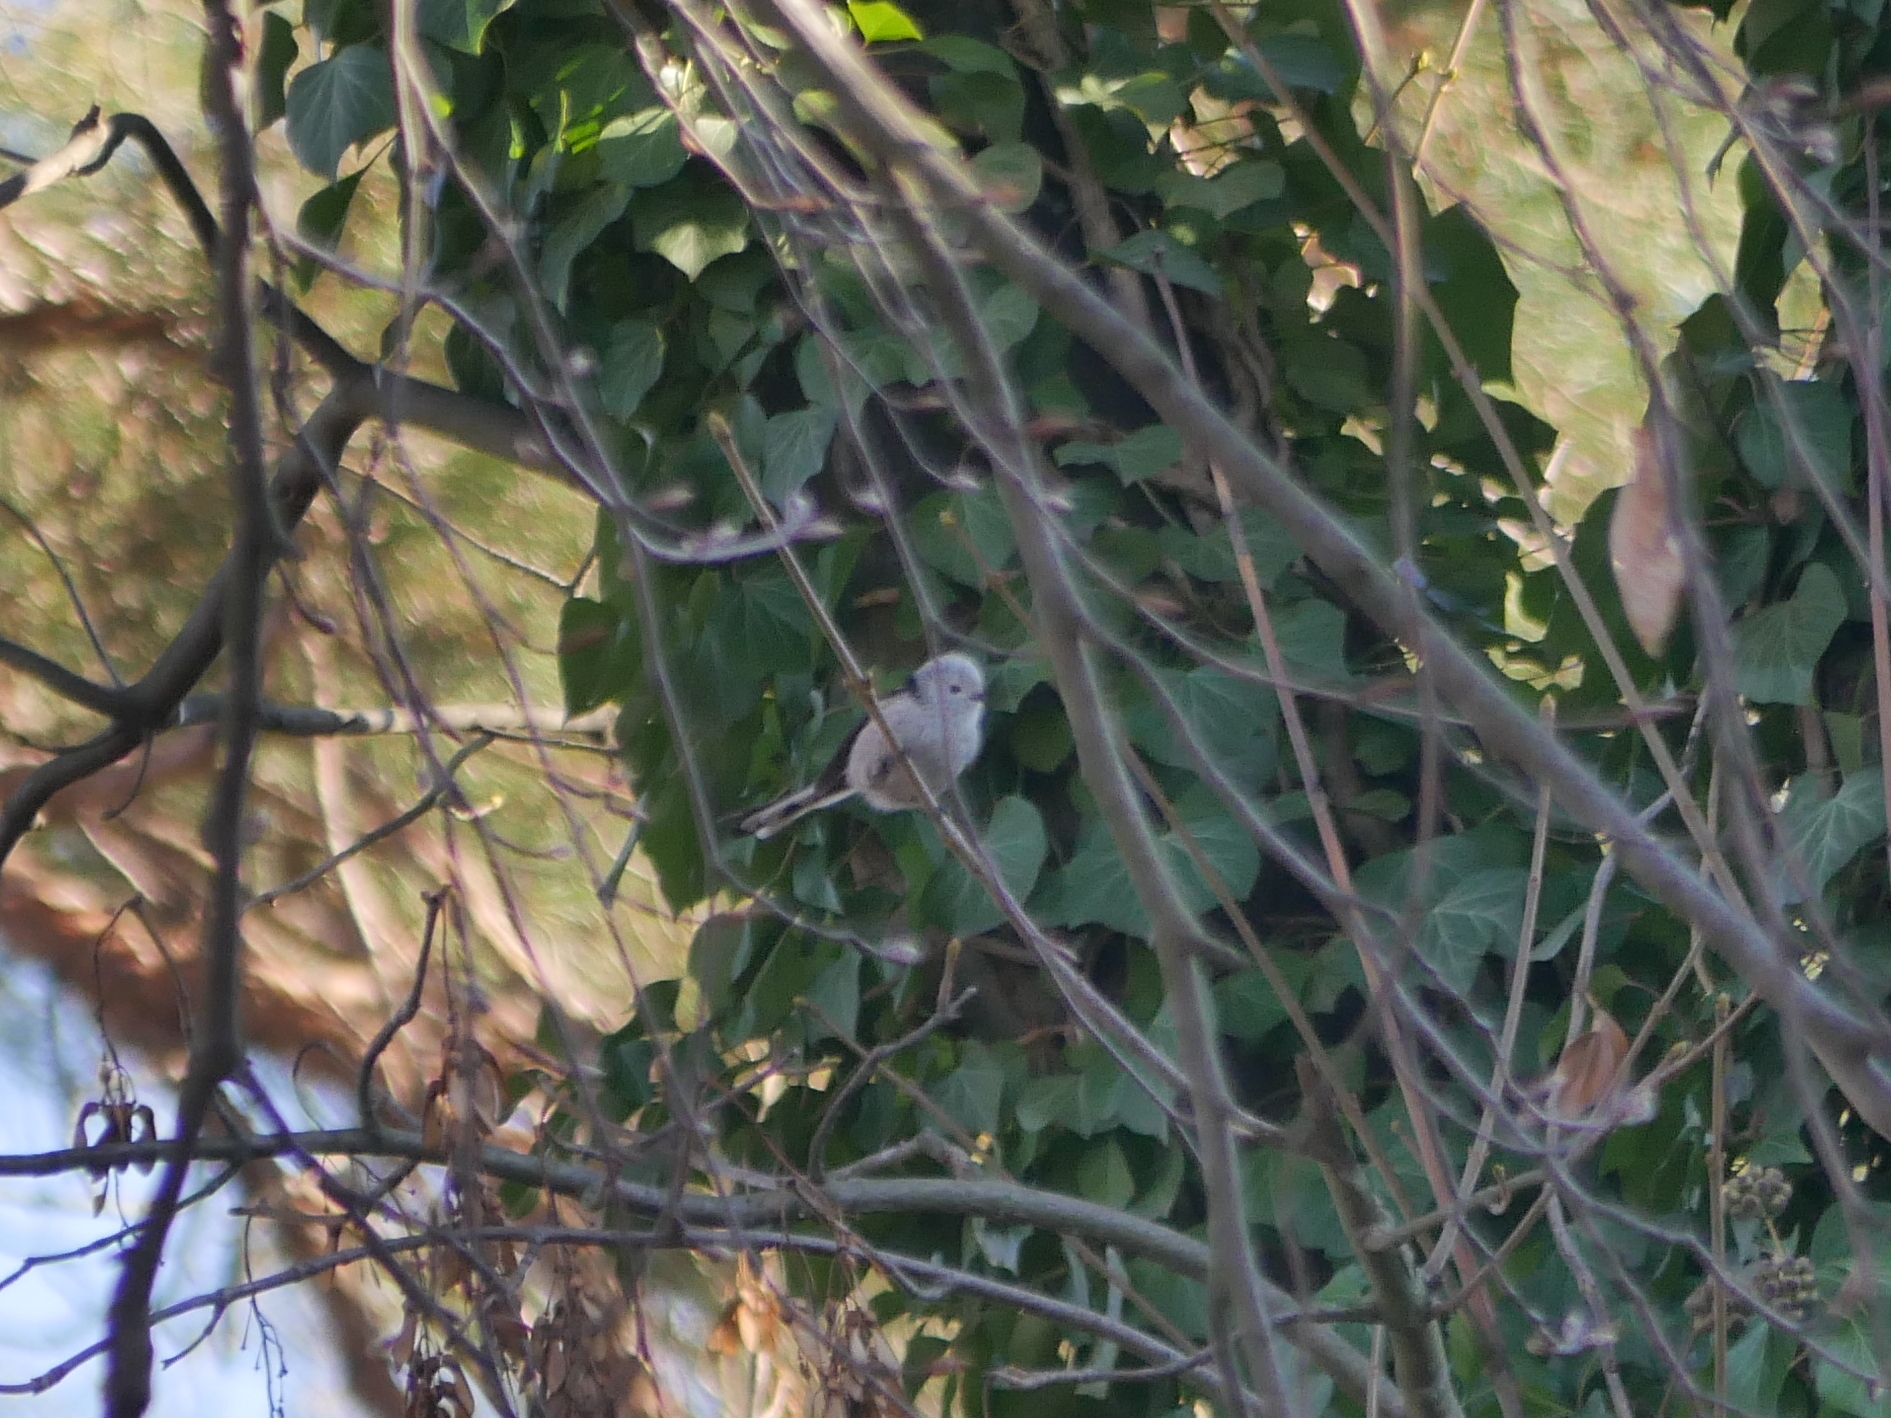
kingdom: Animalia
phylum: Chordata
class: Aves
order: Passeriformes
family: Aegithalidae
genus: Aegithalos
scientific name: Aegithalos caudatus
